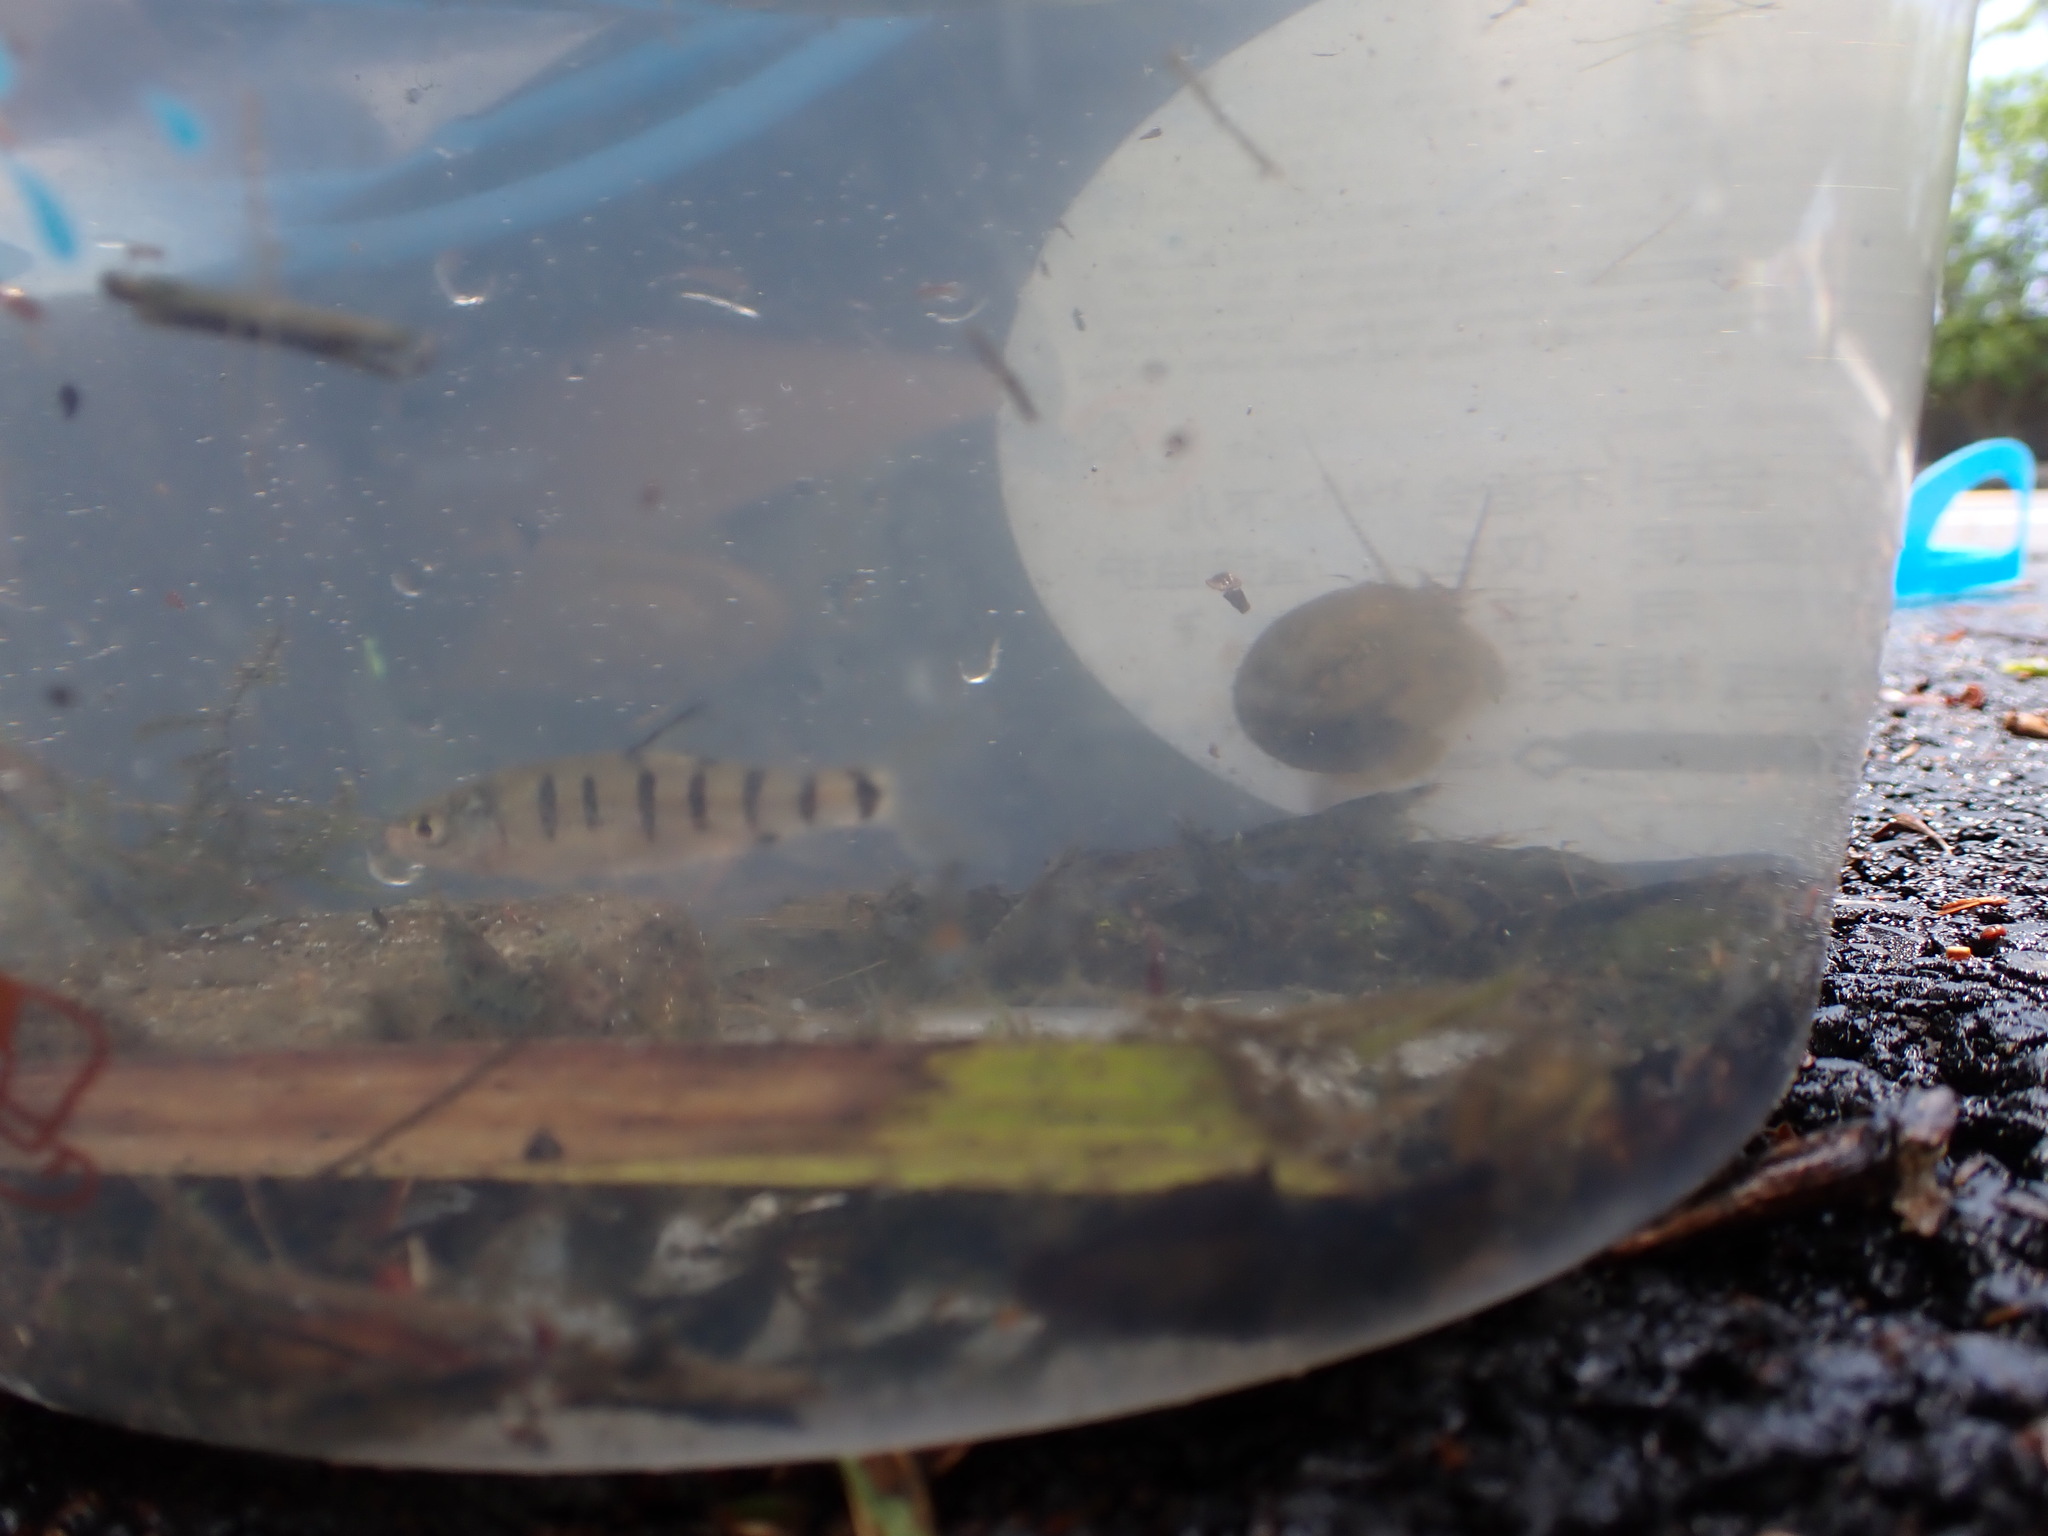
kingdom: Animalia
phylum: Chordata
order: Cypriniformes
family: Cyprinidae
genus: Acrossocheilus
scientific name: Acrossocheilus paradoxus
